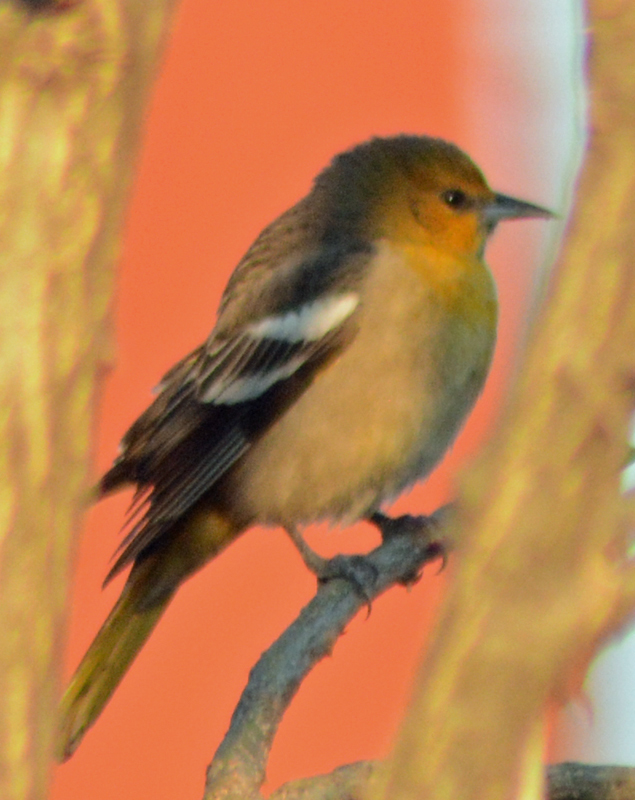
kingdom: Animalia
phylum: Chordata
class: Aves
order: Passeriformes
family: Icteridae
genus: Icterus
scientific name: Icterus abeillei
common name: Black-backed oriole
